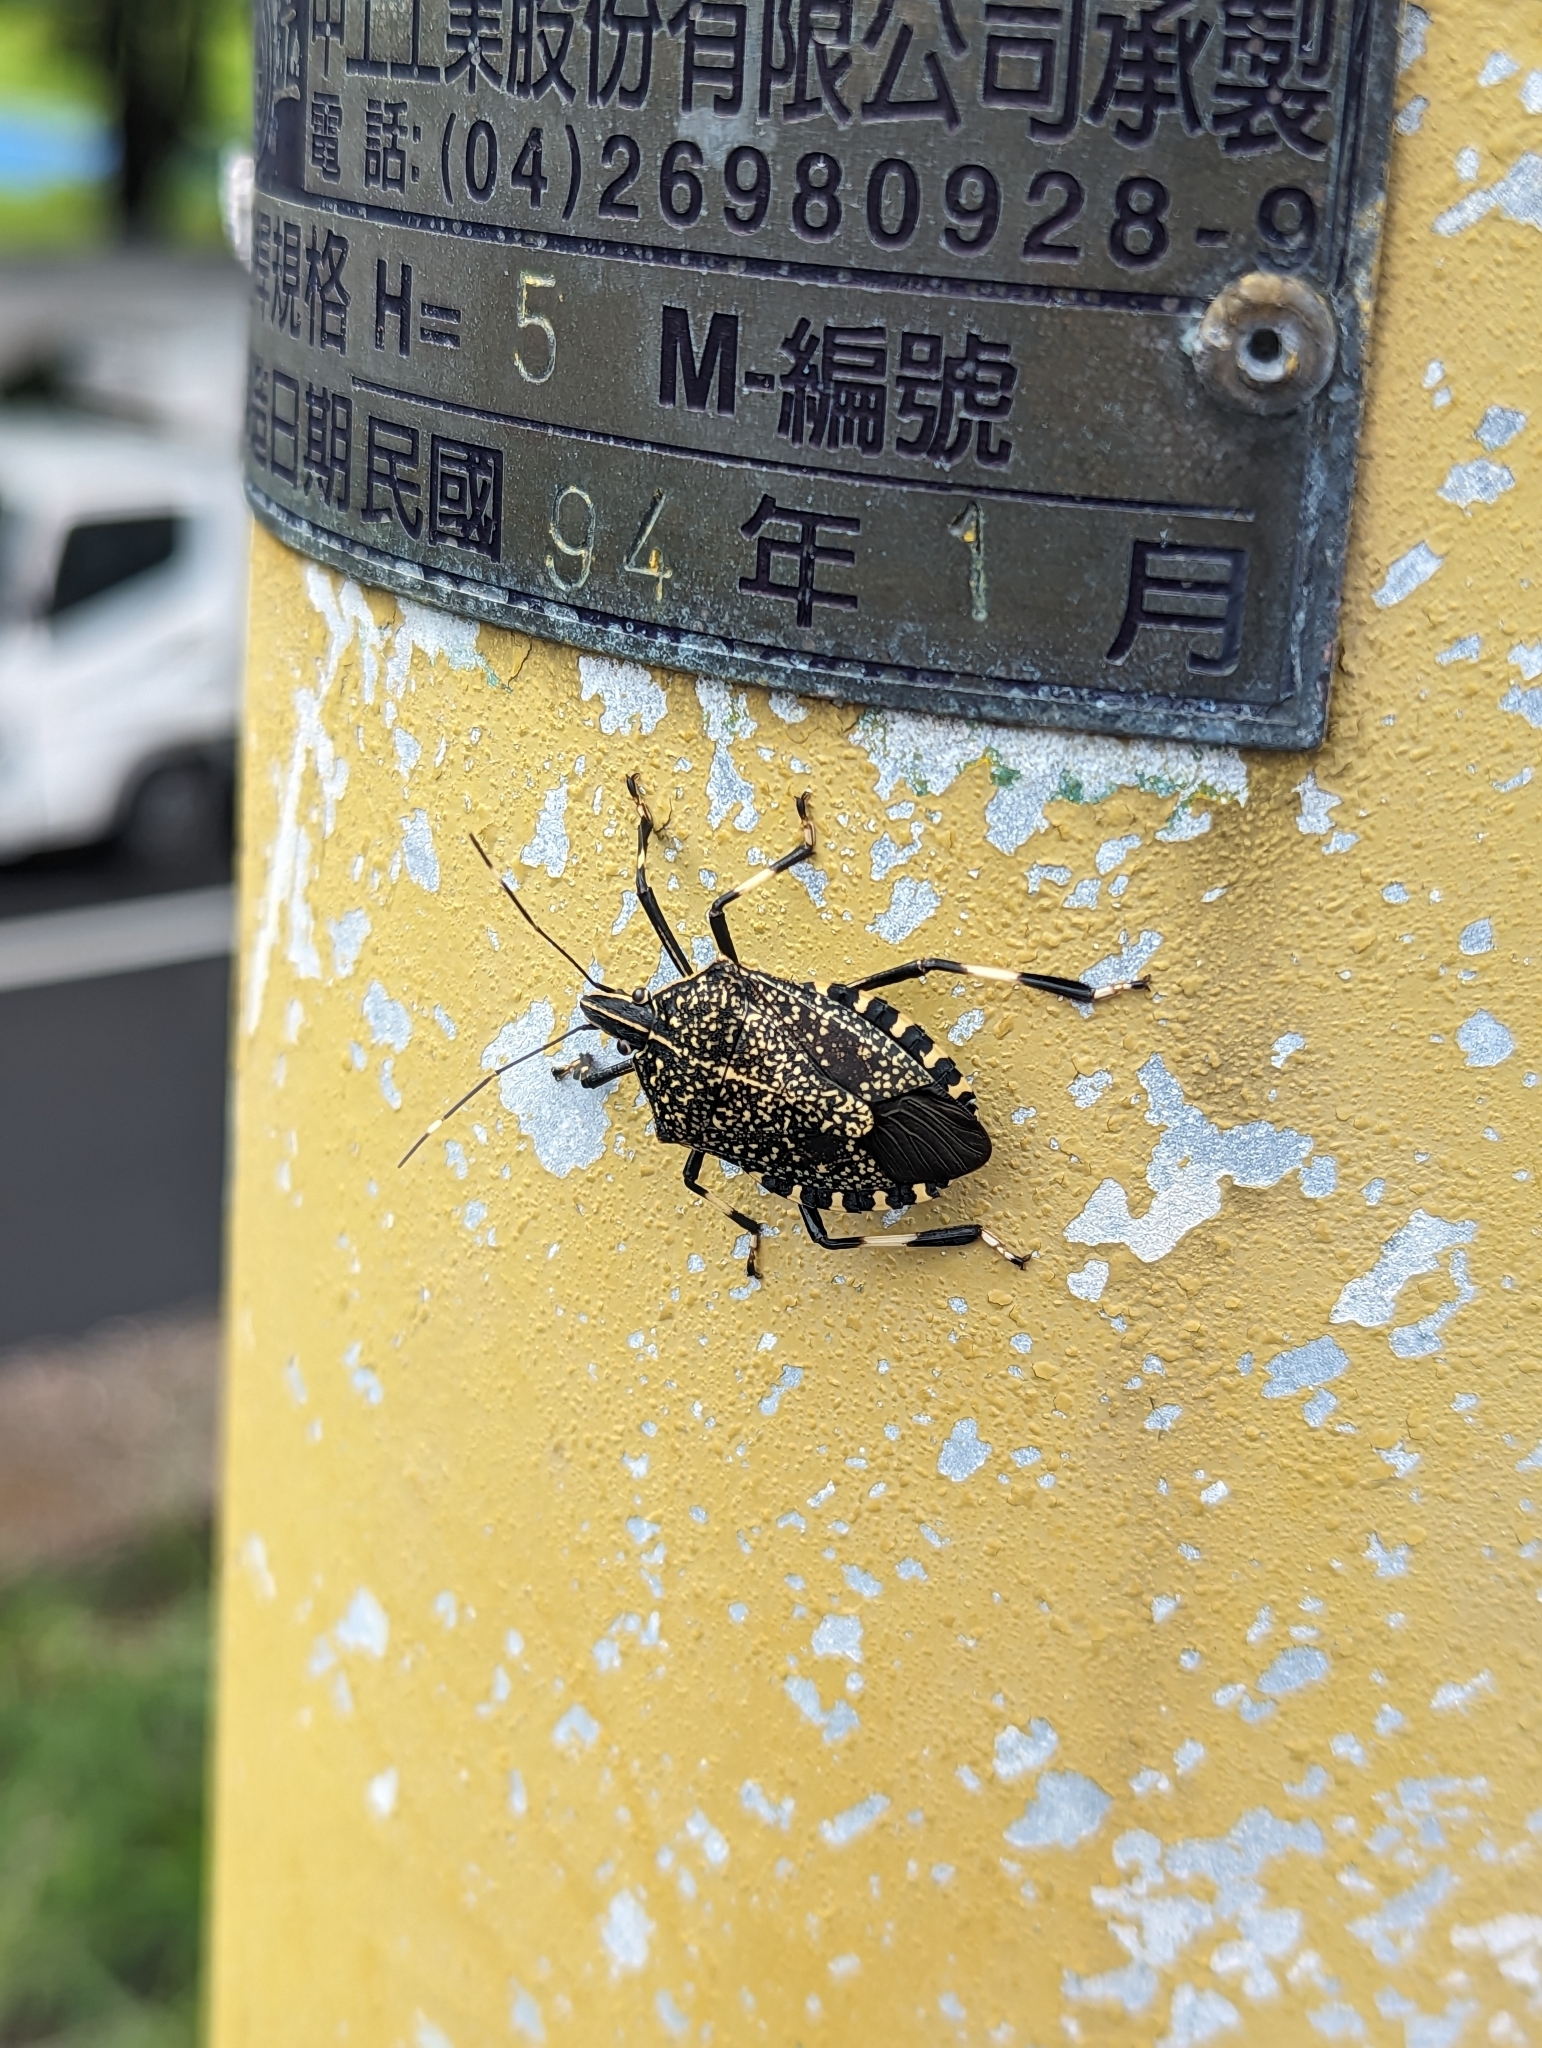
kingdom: Animalia
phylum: Arthropoda
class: Insecta
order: Hemiptera
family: Pentatomidae
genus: Erthesina
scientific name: Erthesina fullo
